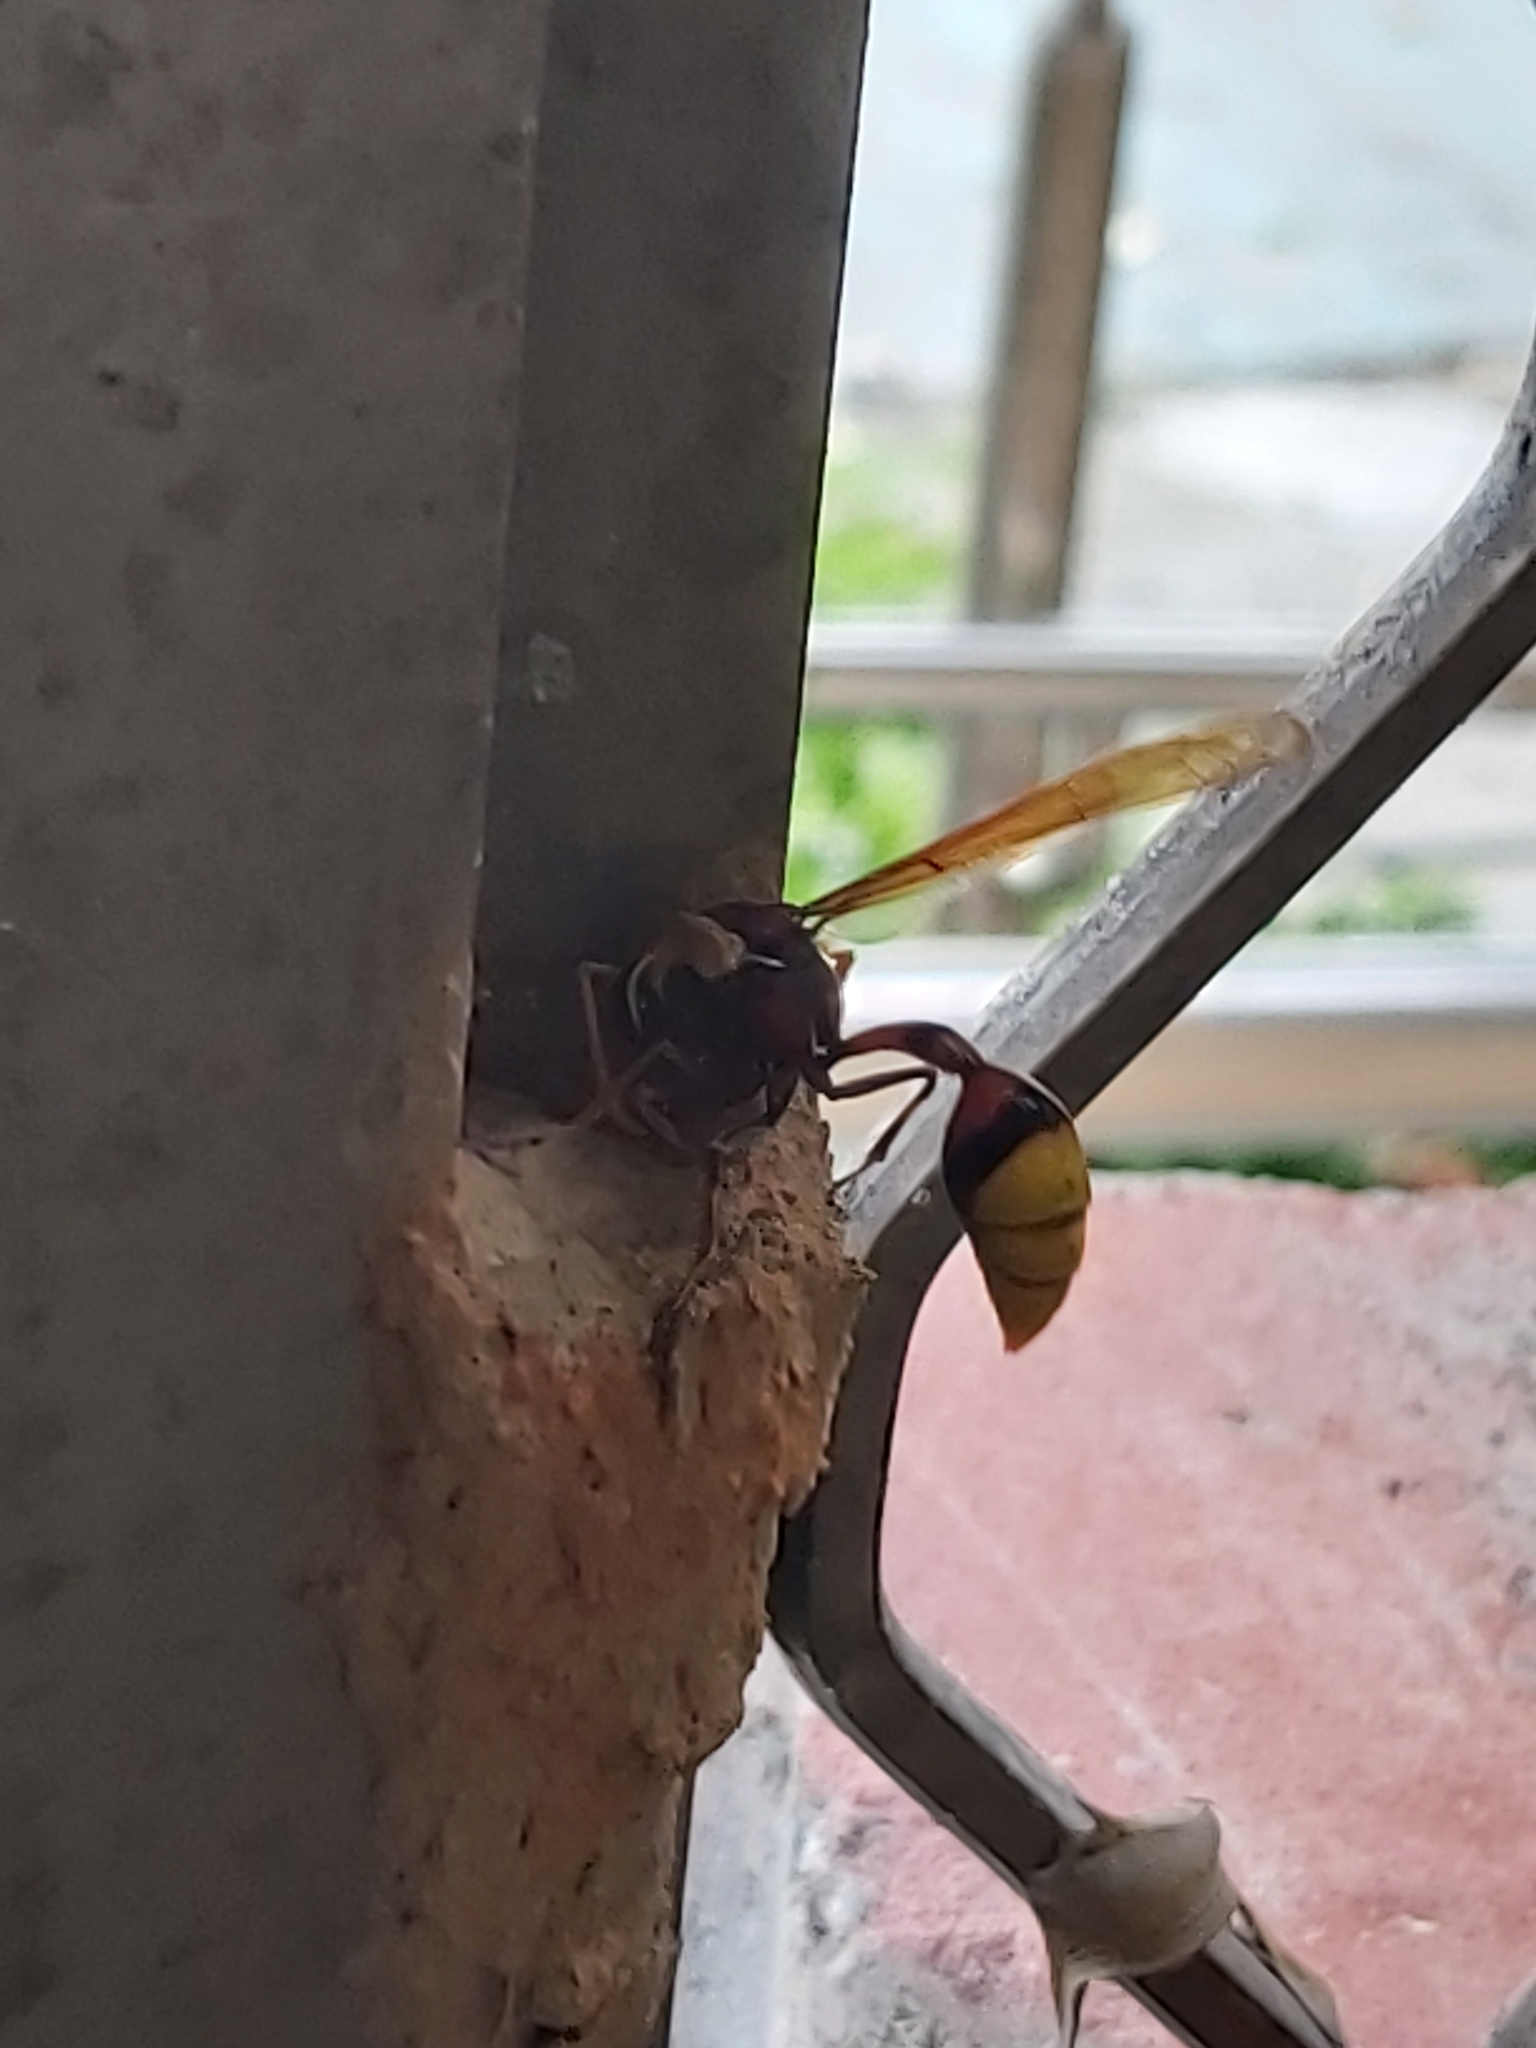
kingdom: Animalia
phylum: Arthropoda
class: Insecta
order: Hymenoptera
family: Eumenidae
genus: Delta
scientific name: Delta pyriforme
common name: Wasp
